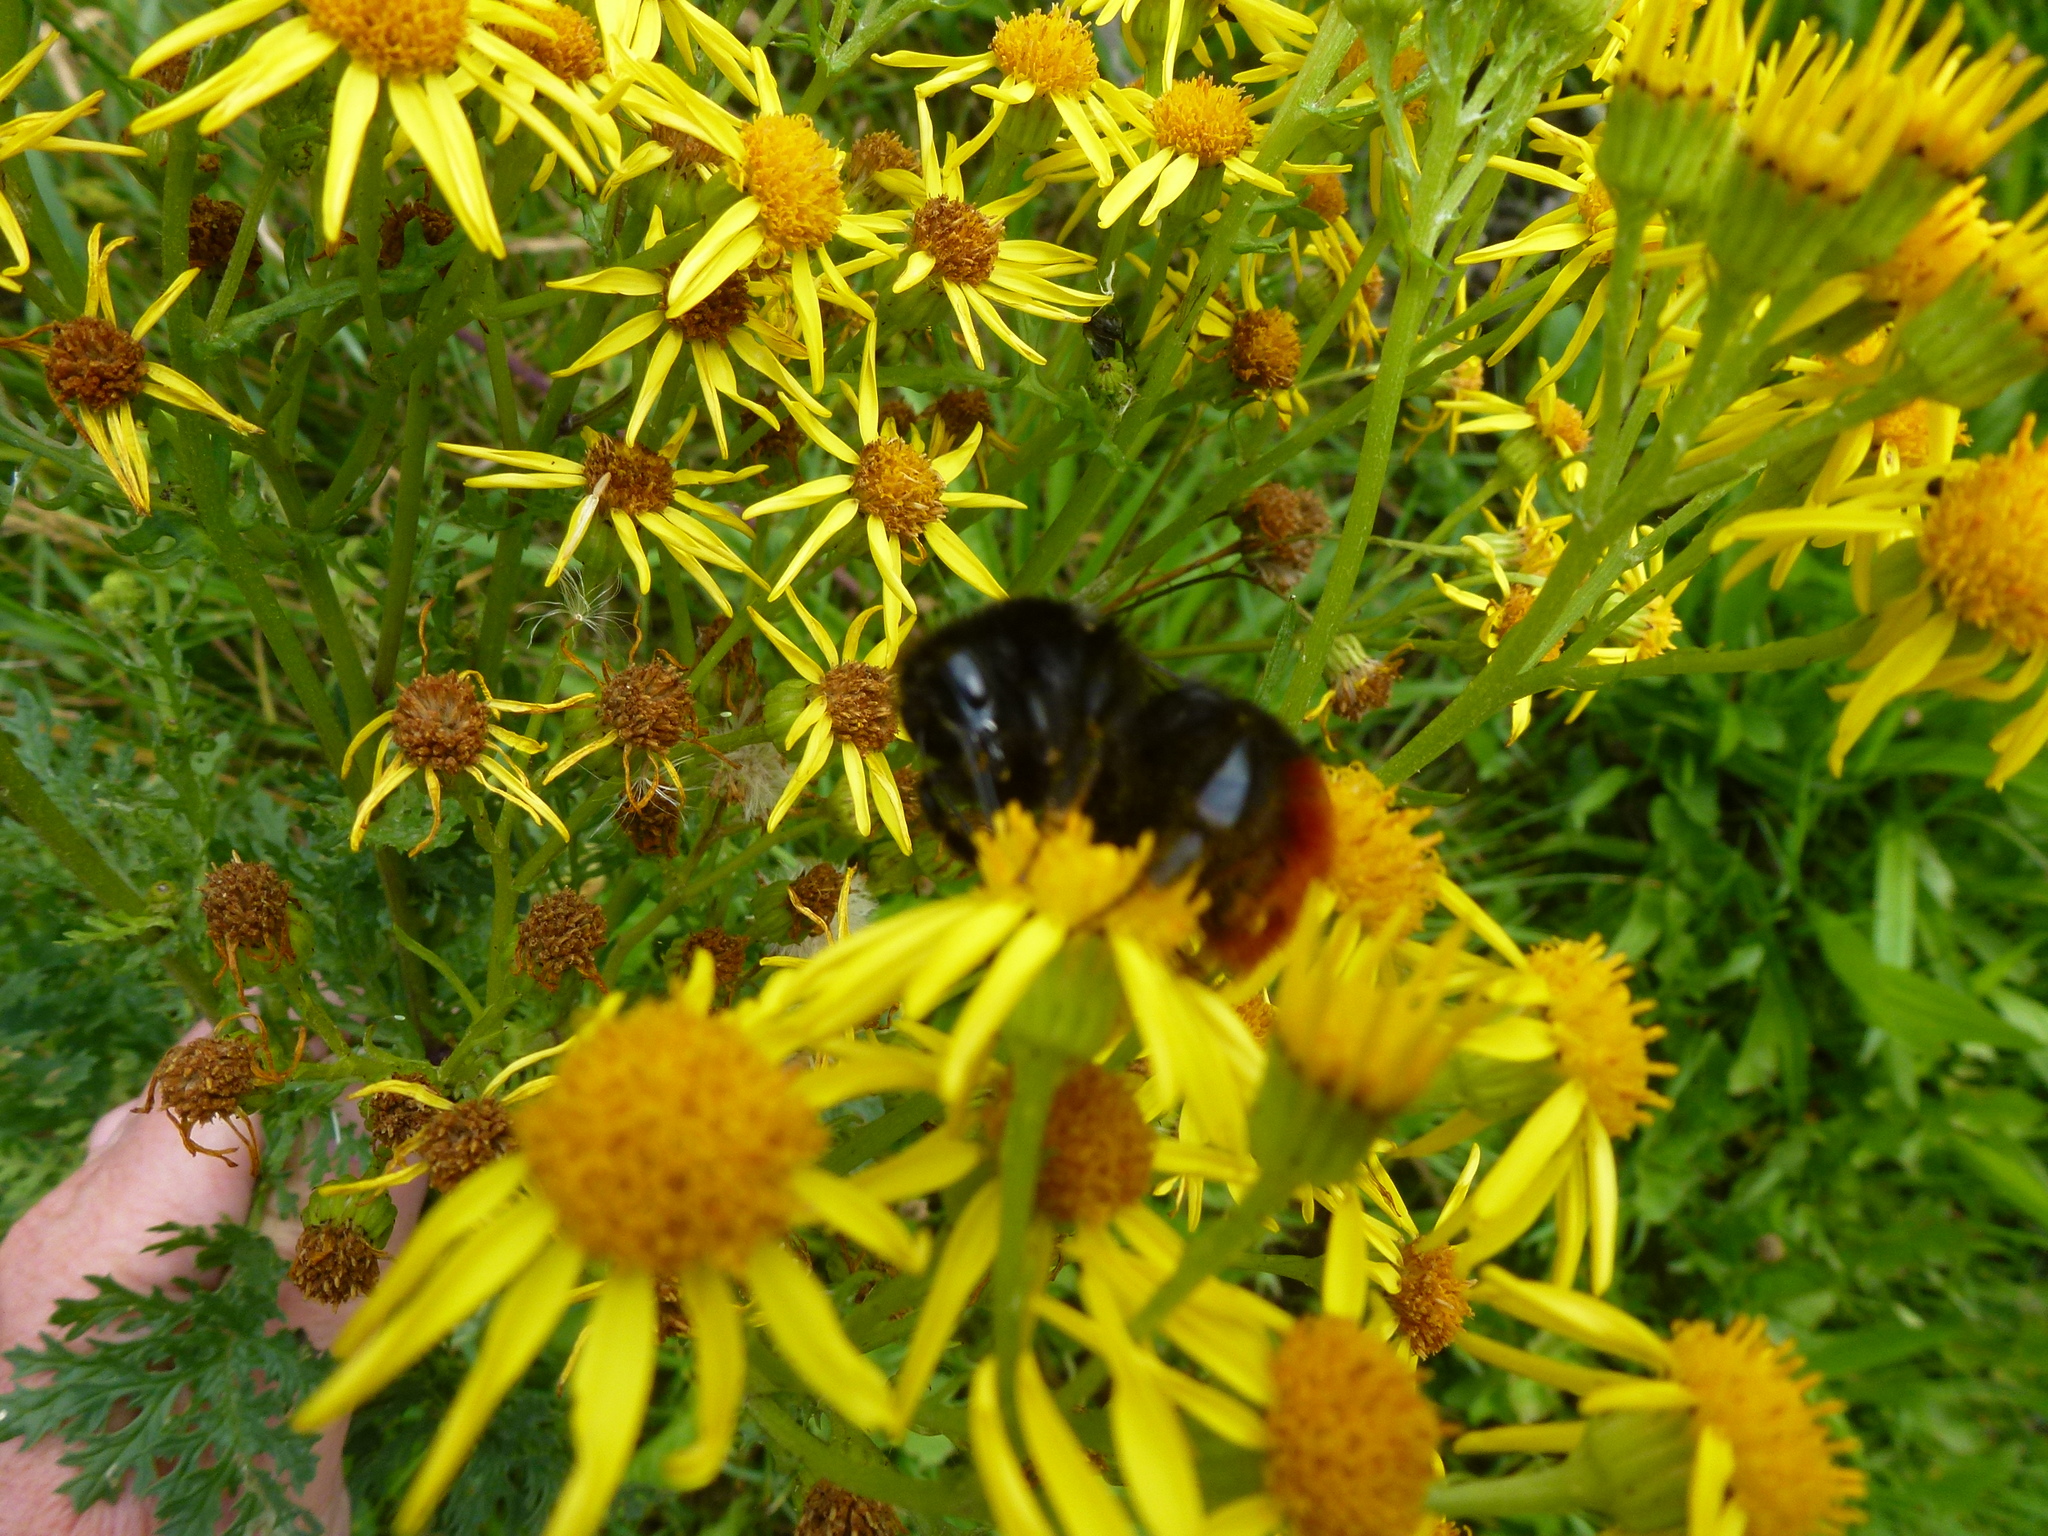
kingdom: Animalia
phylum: Arthropoda
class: Insecta
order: Hymenoptera
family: Apidae
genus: Bombus
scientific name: Bombus lapidarius
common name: Large red-tailed humble-bee
